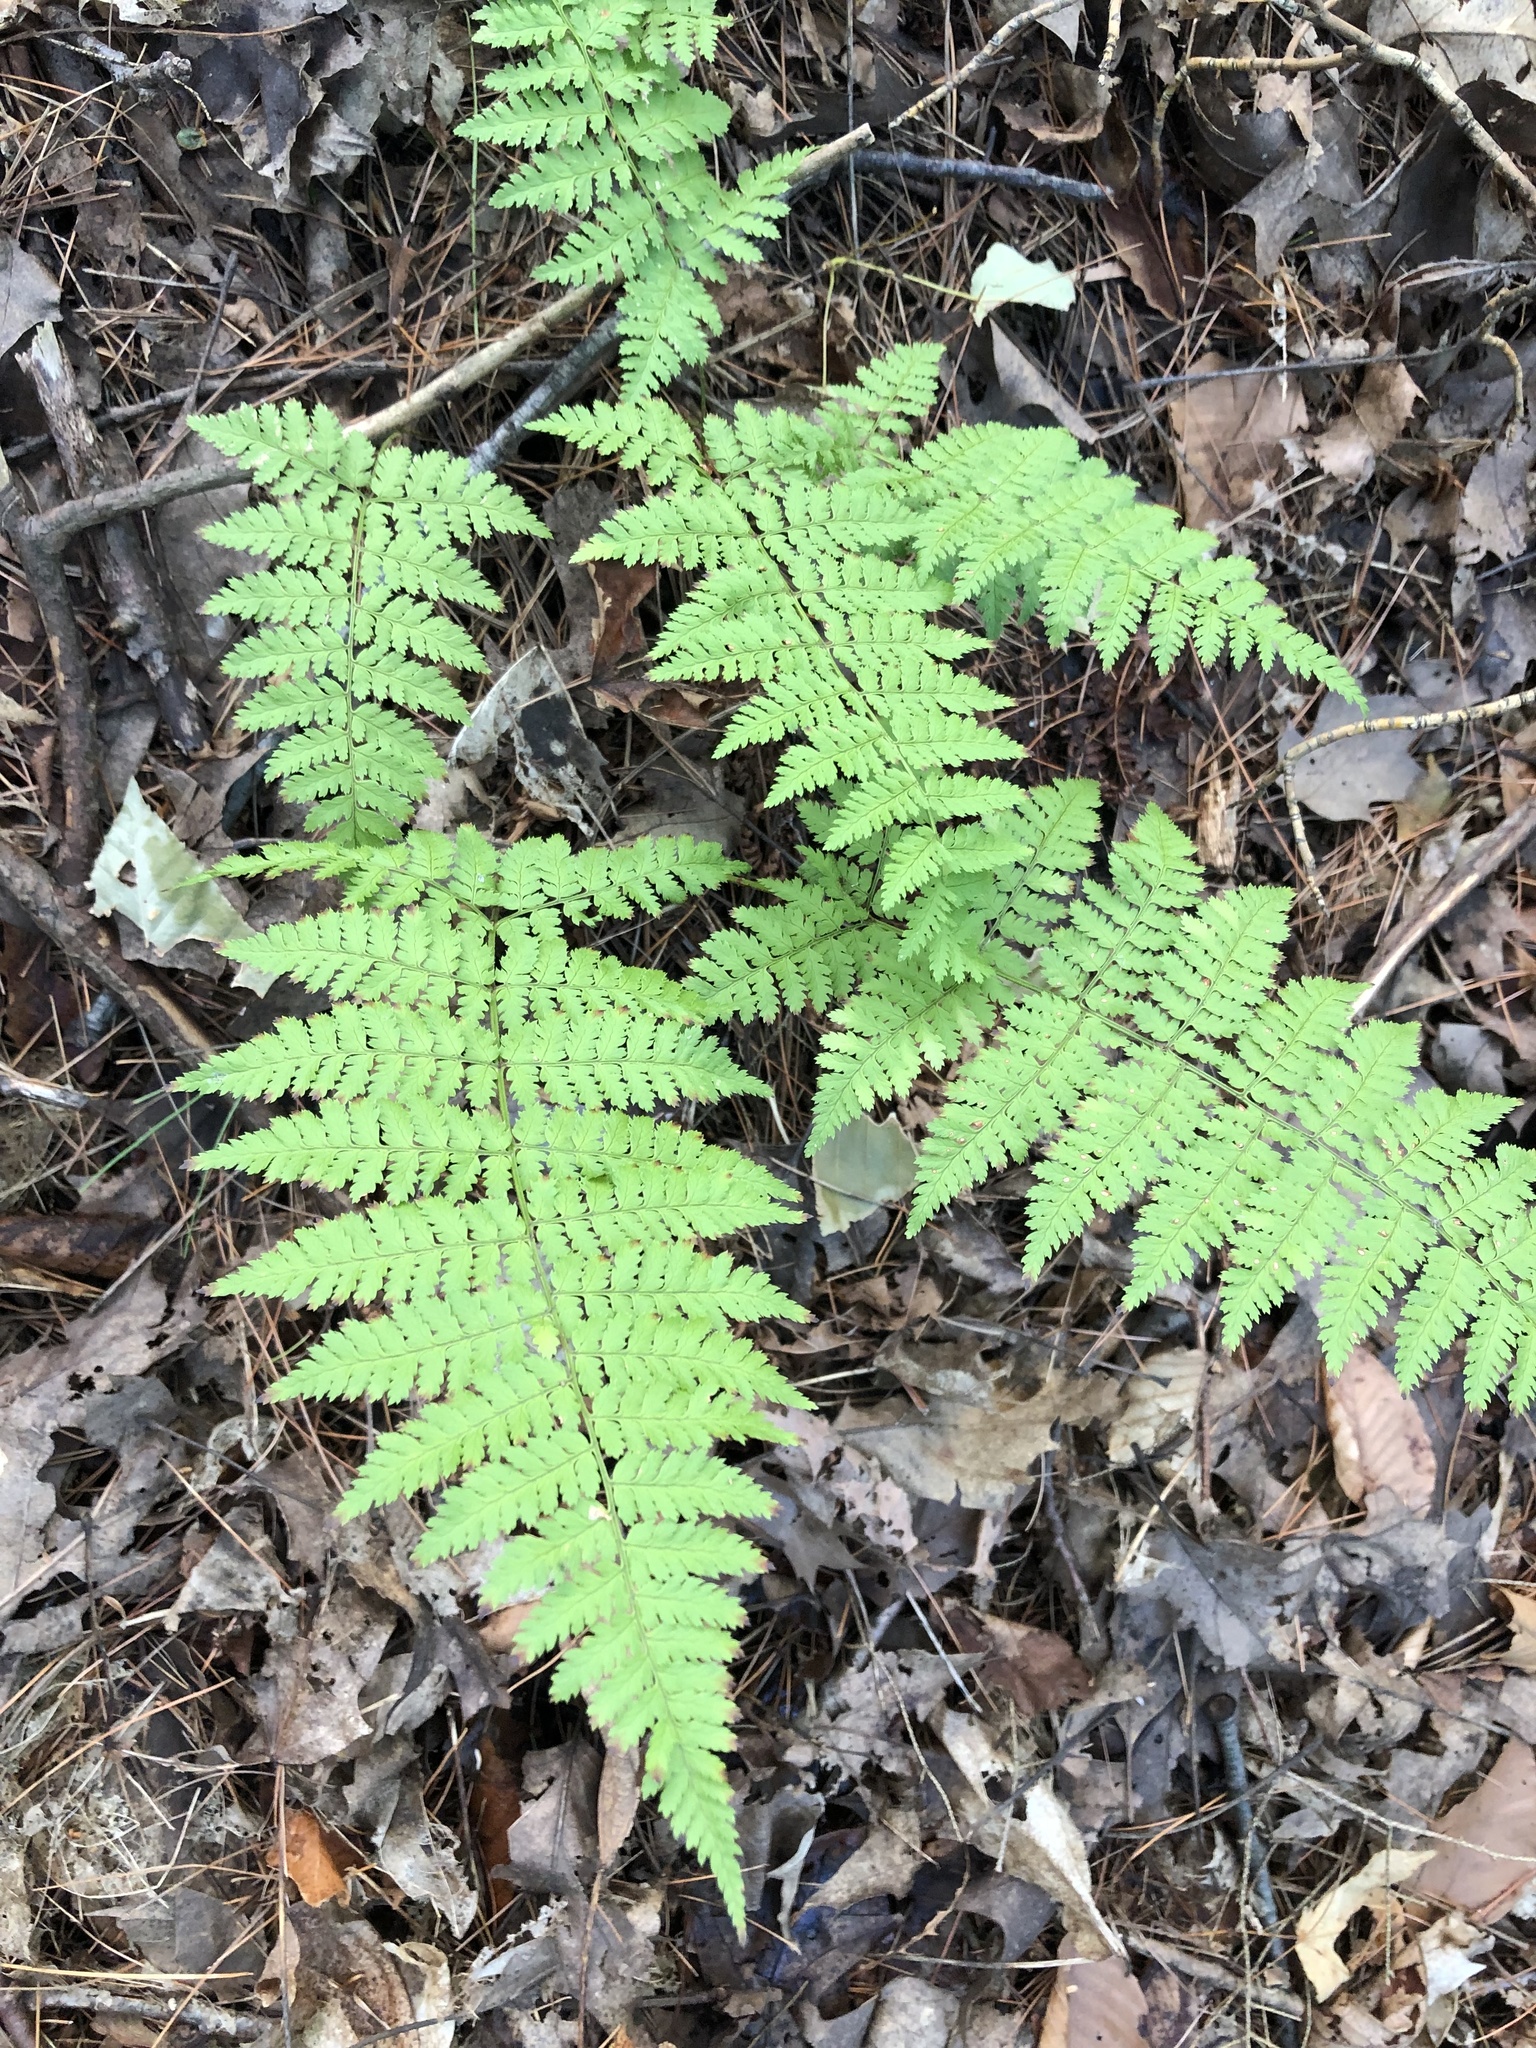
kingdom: Plantae
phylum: Tracheophyta
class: Polypodiopsida
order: Polypodiales
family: Dryopteridaceae
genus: Dryopteris
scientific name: Dryopteris intermedia
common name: Evergreen wood fern
